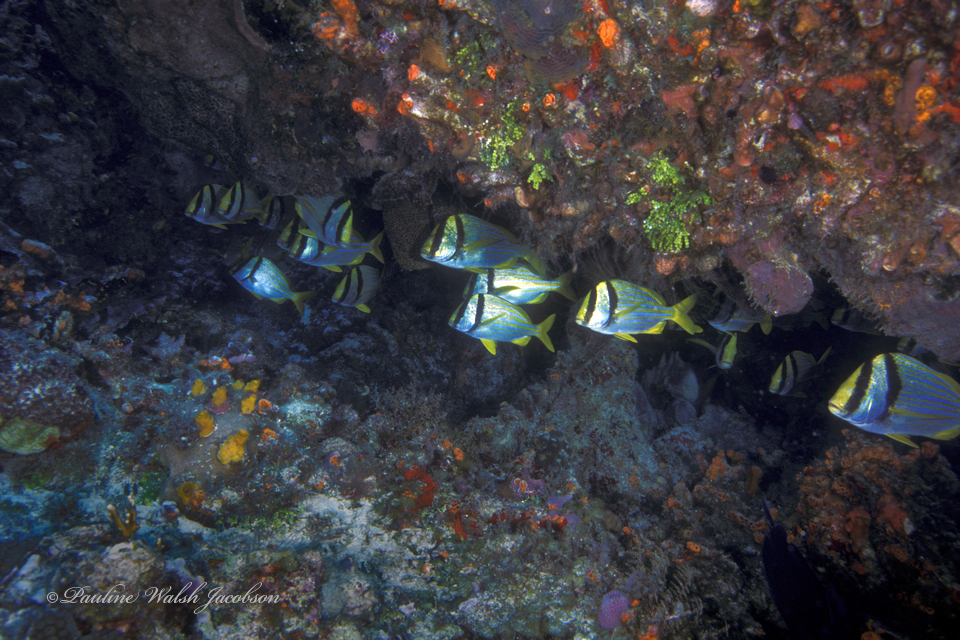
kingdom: Animalia
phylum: Chordata
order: Perciformes
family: Haemulidae
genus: Anisotremus
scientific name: Anisotremus virginicus
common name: Porkfish
